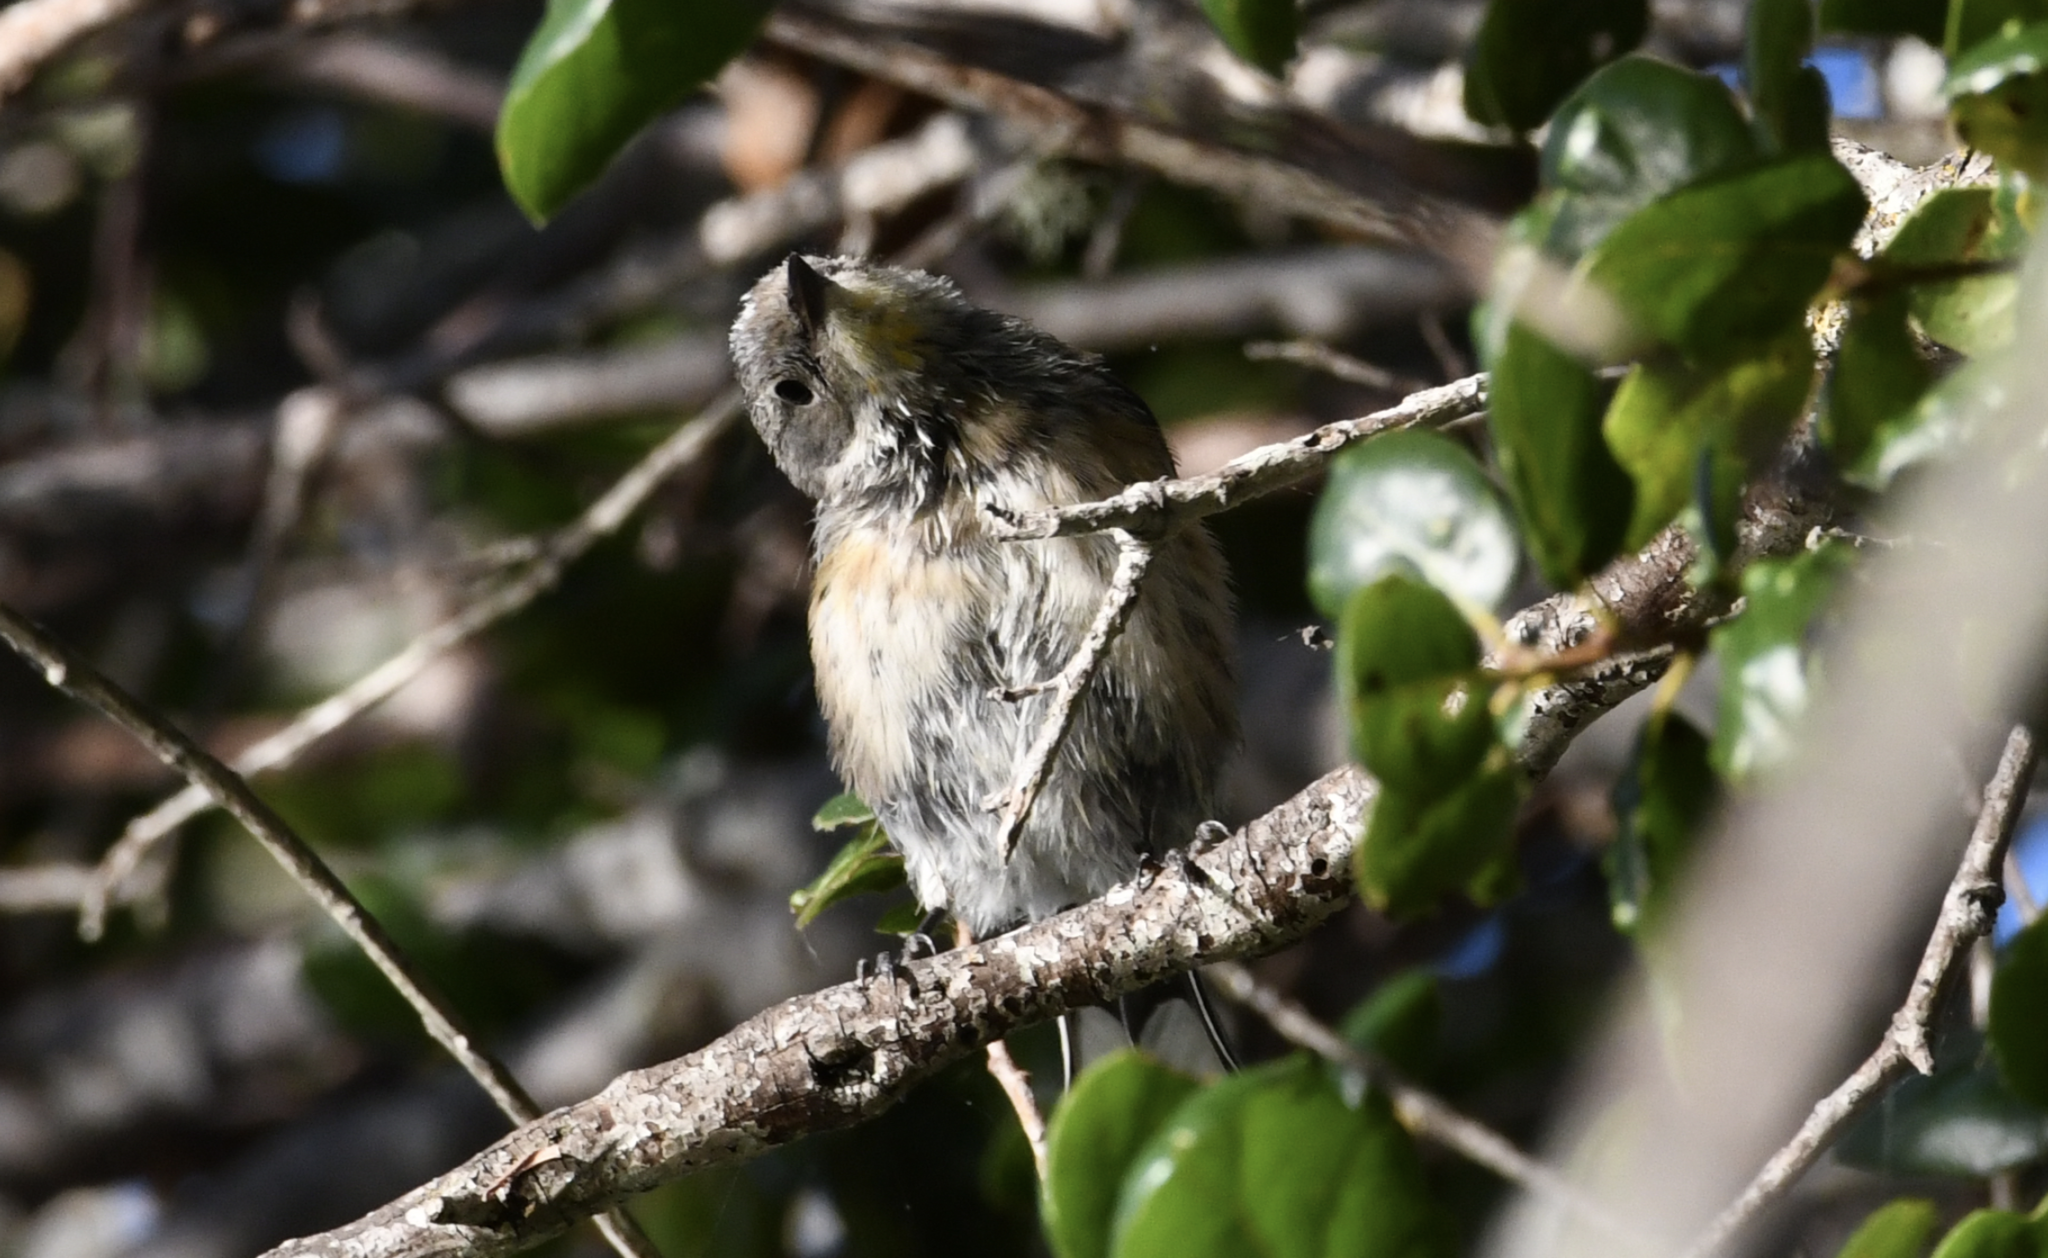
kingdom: Animalia
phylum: Chordata
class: Aves
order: Passeriformes
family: Parulidae
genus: Setophaga
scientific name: Setophaga coronata
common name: Myrtle warbler
